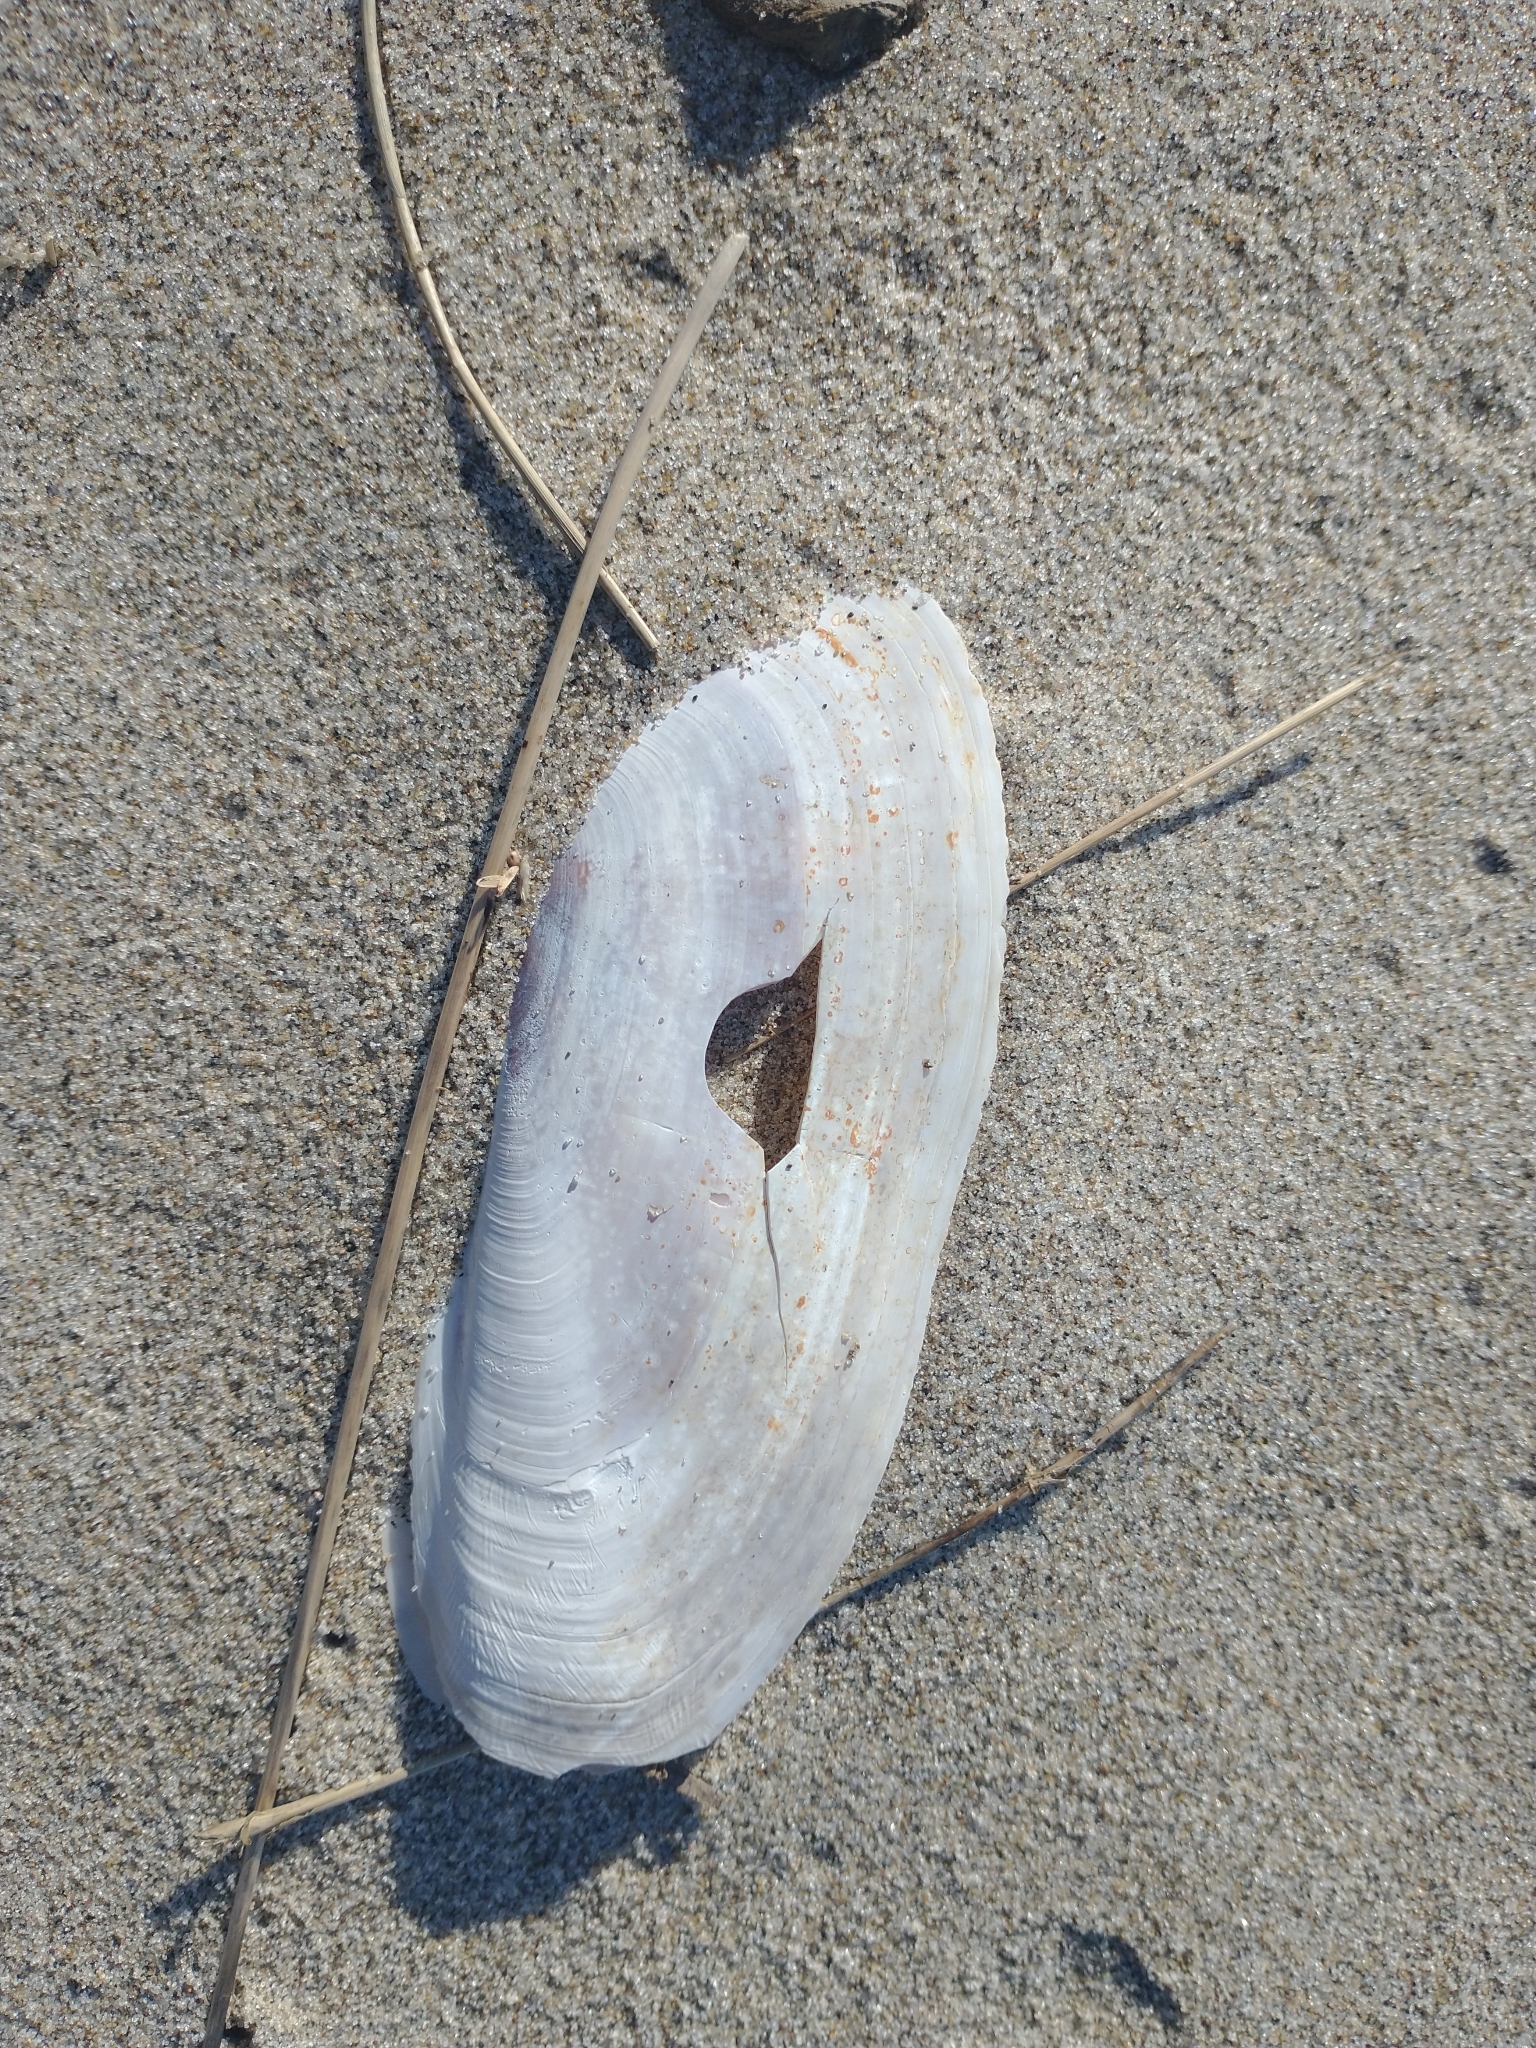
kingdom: Animalia
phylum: Mollusca
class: Bivalvia
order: Adapedonta
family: Pharidae
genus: Siliqua
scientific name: Siliqua patula
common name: Pacific razor clam
